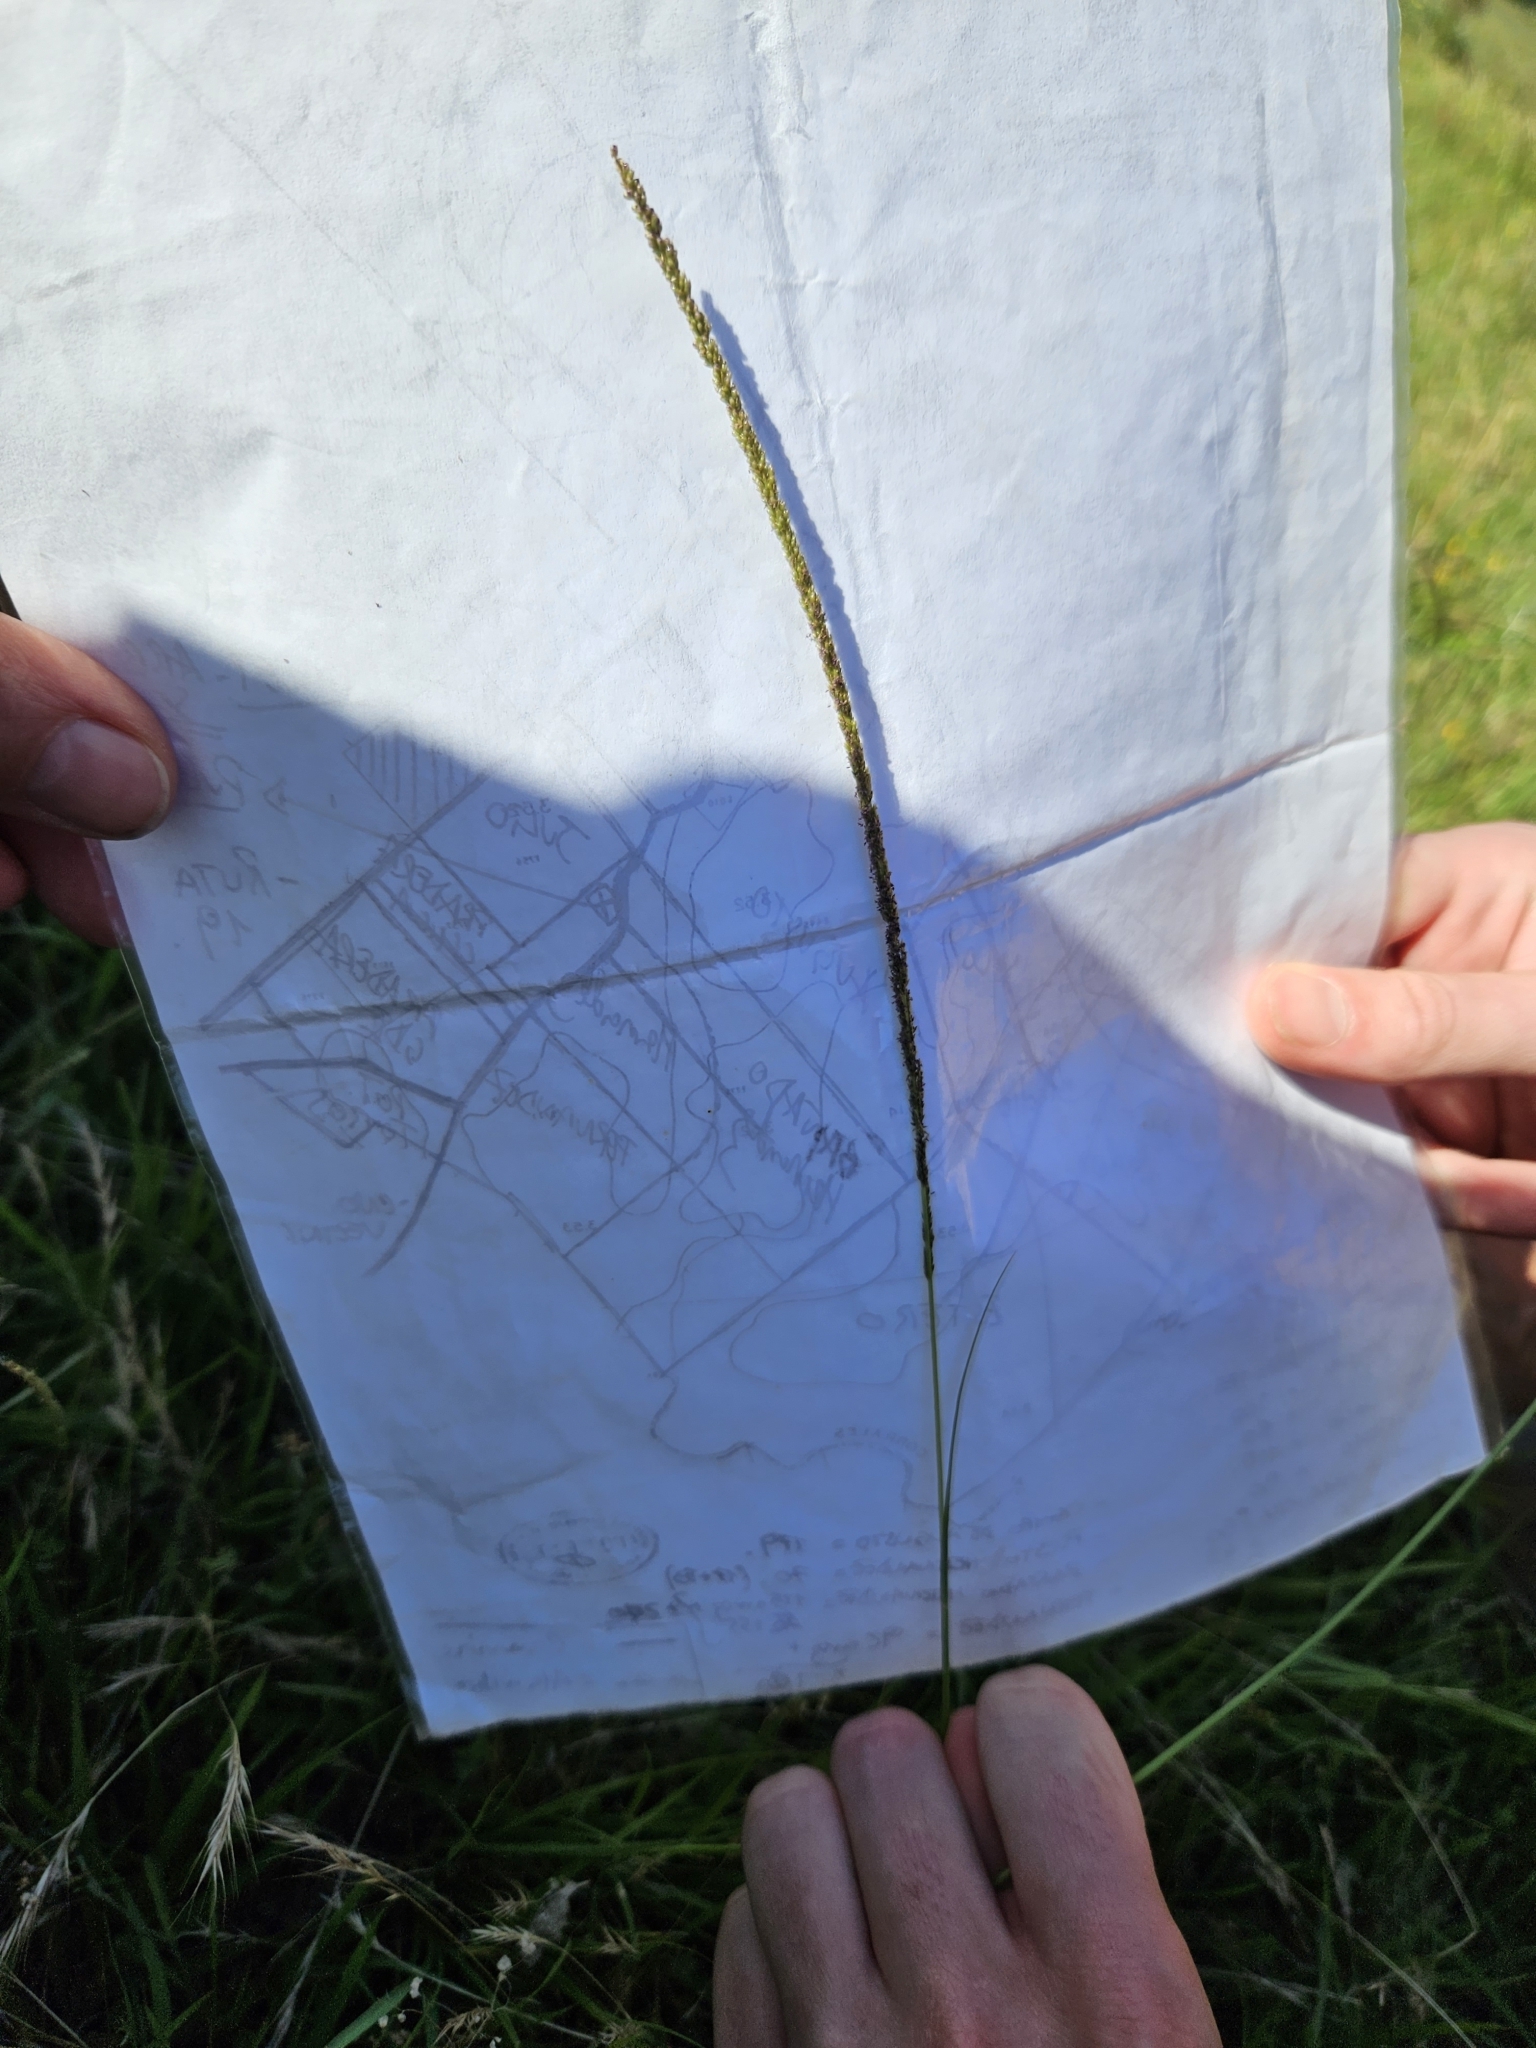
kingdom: Plantae
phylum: Tracheophyta
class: Liliopsida
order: Poales
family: Poaceae
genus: Sporobolus
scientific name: Sporobolus indicus
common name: Smut grass
